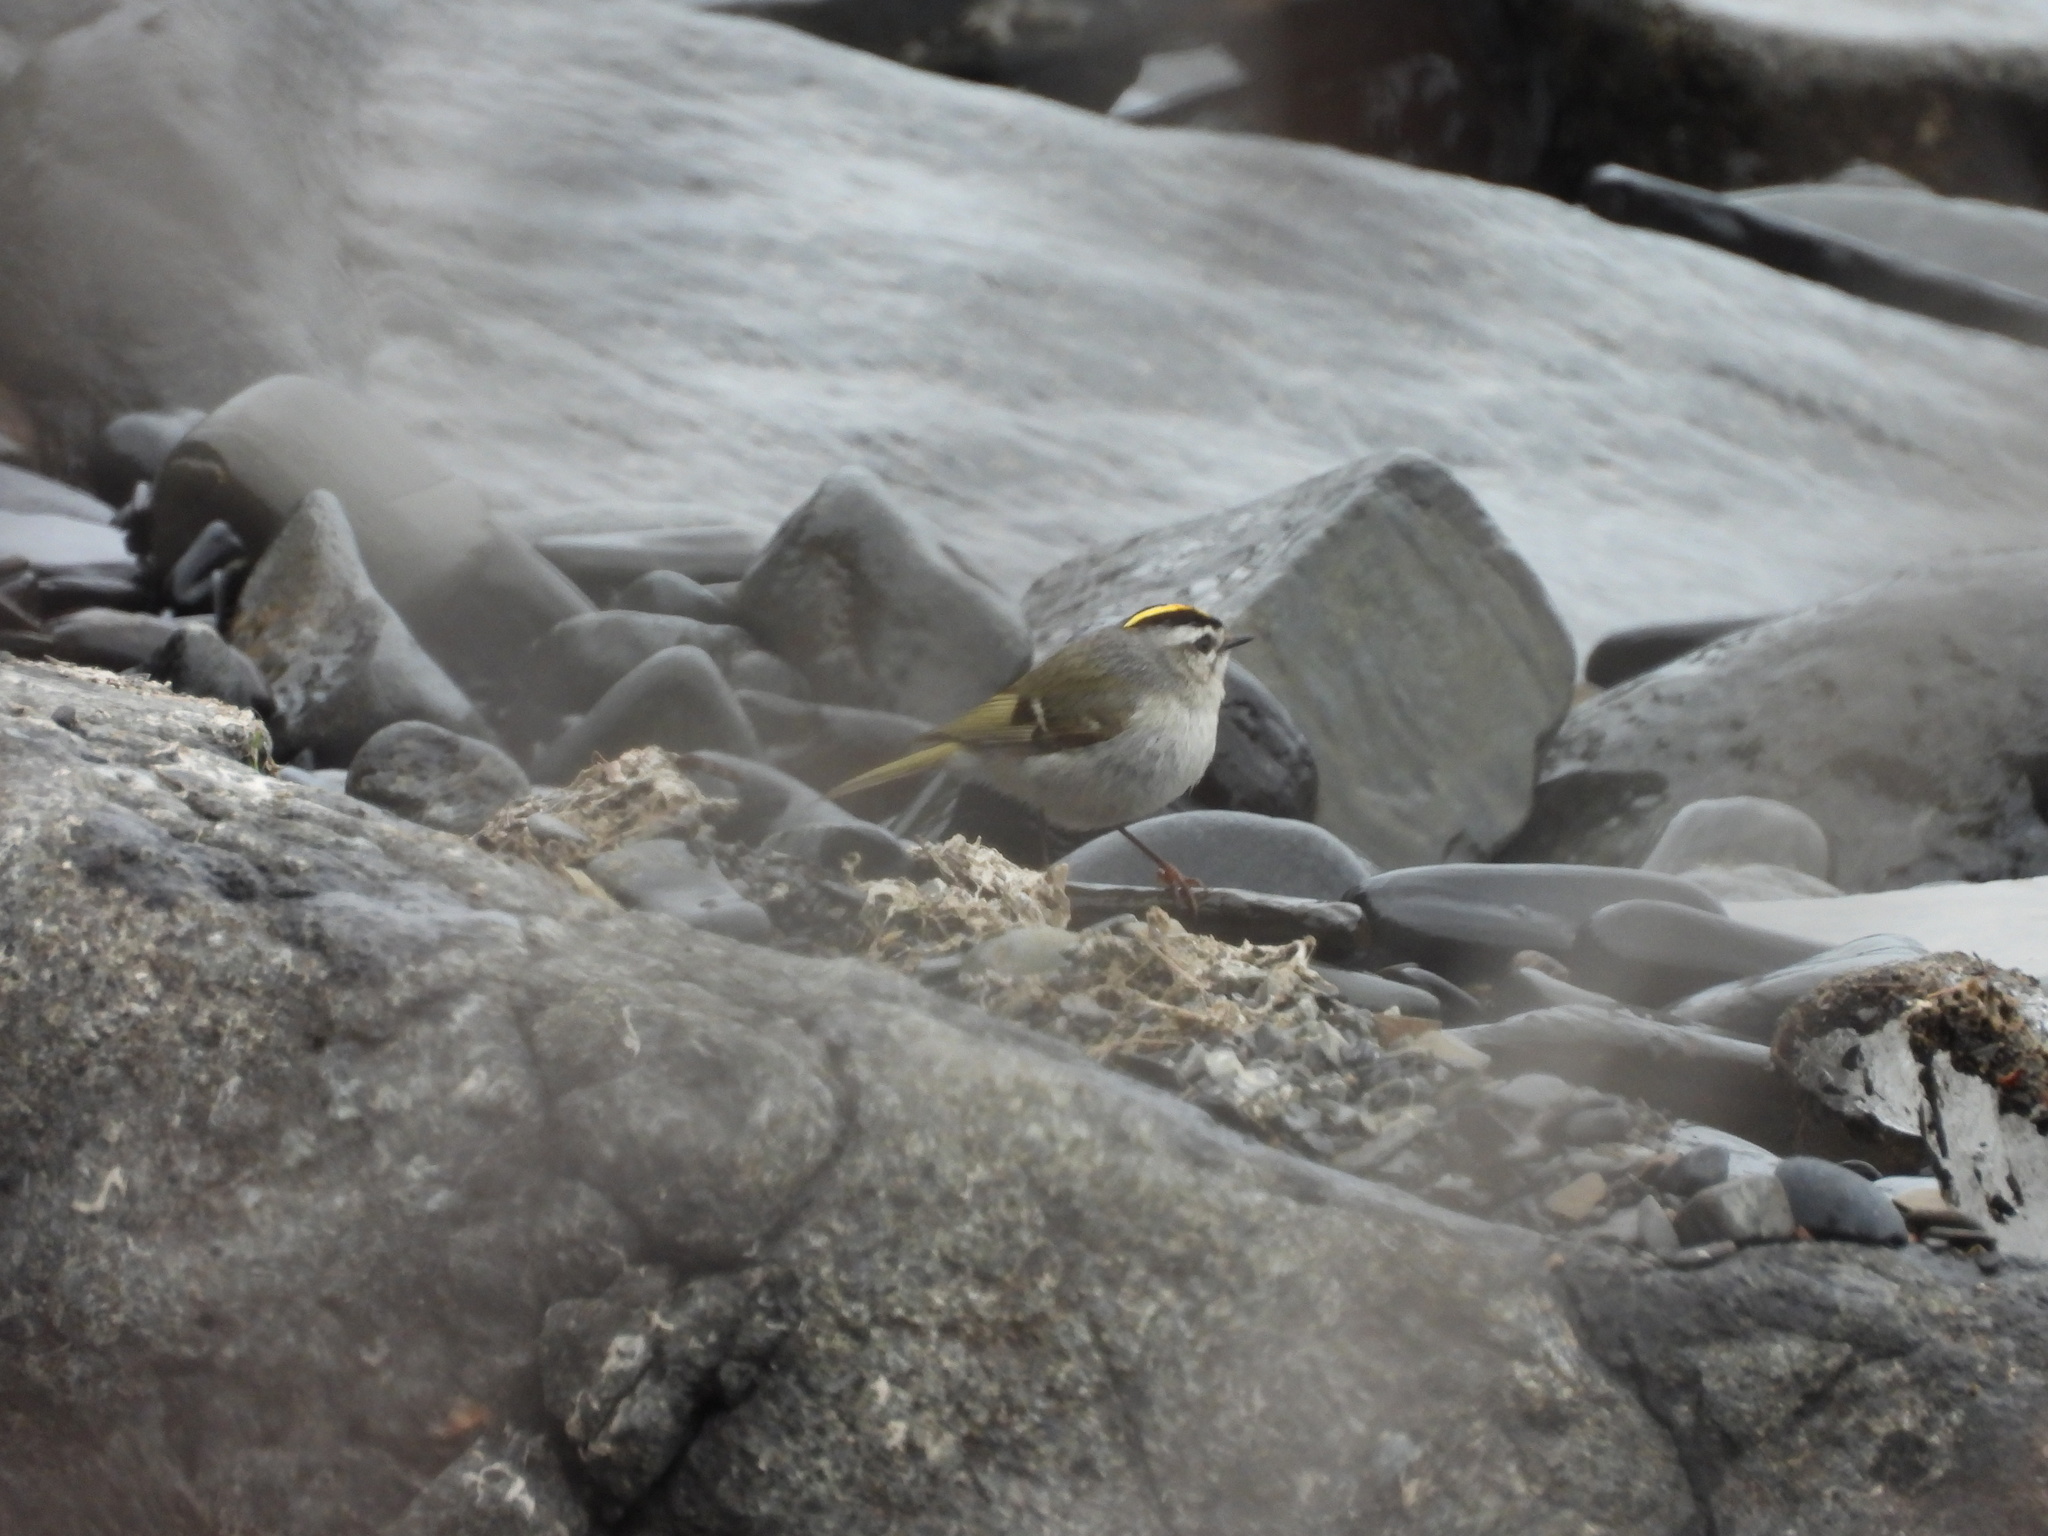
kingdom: Animalia
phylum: Chordata
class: Aves
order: Passeriformes
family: Regulidae
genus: Regulus
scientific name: Regulus satrapa
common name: Golden-crowned kinglet
